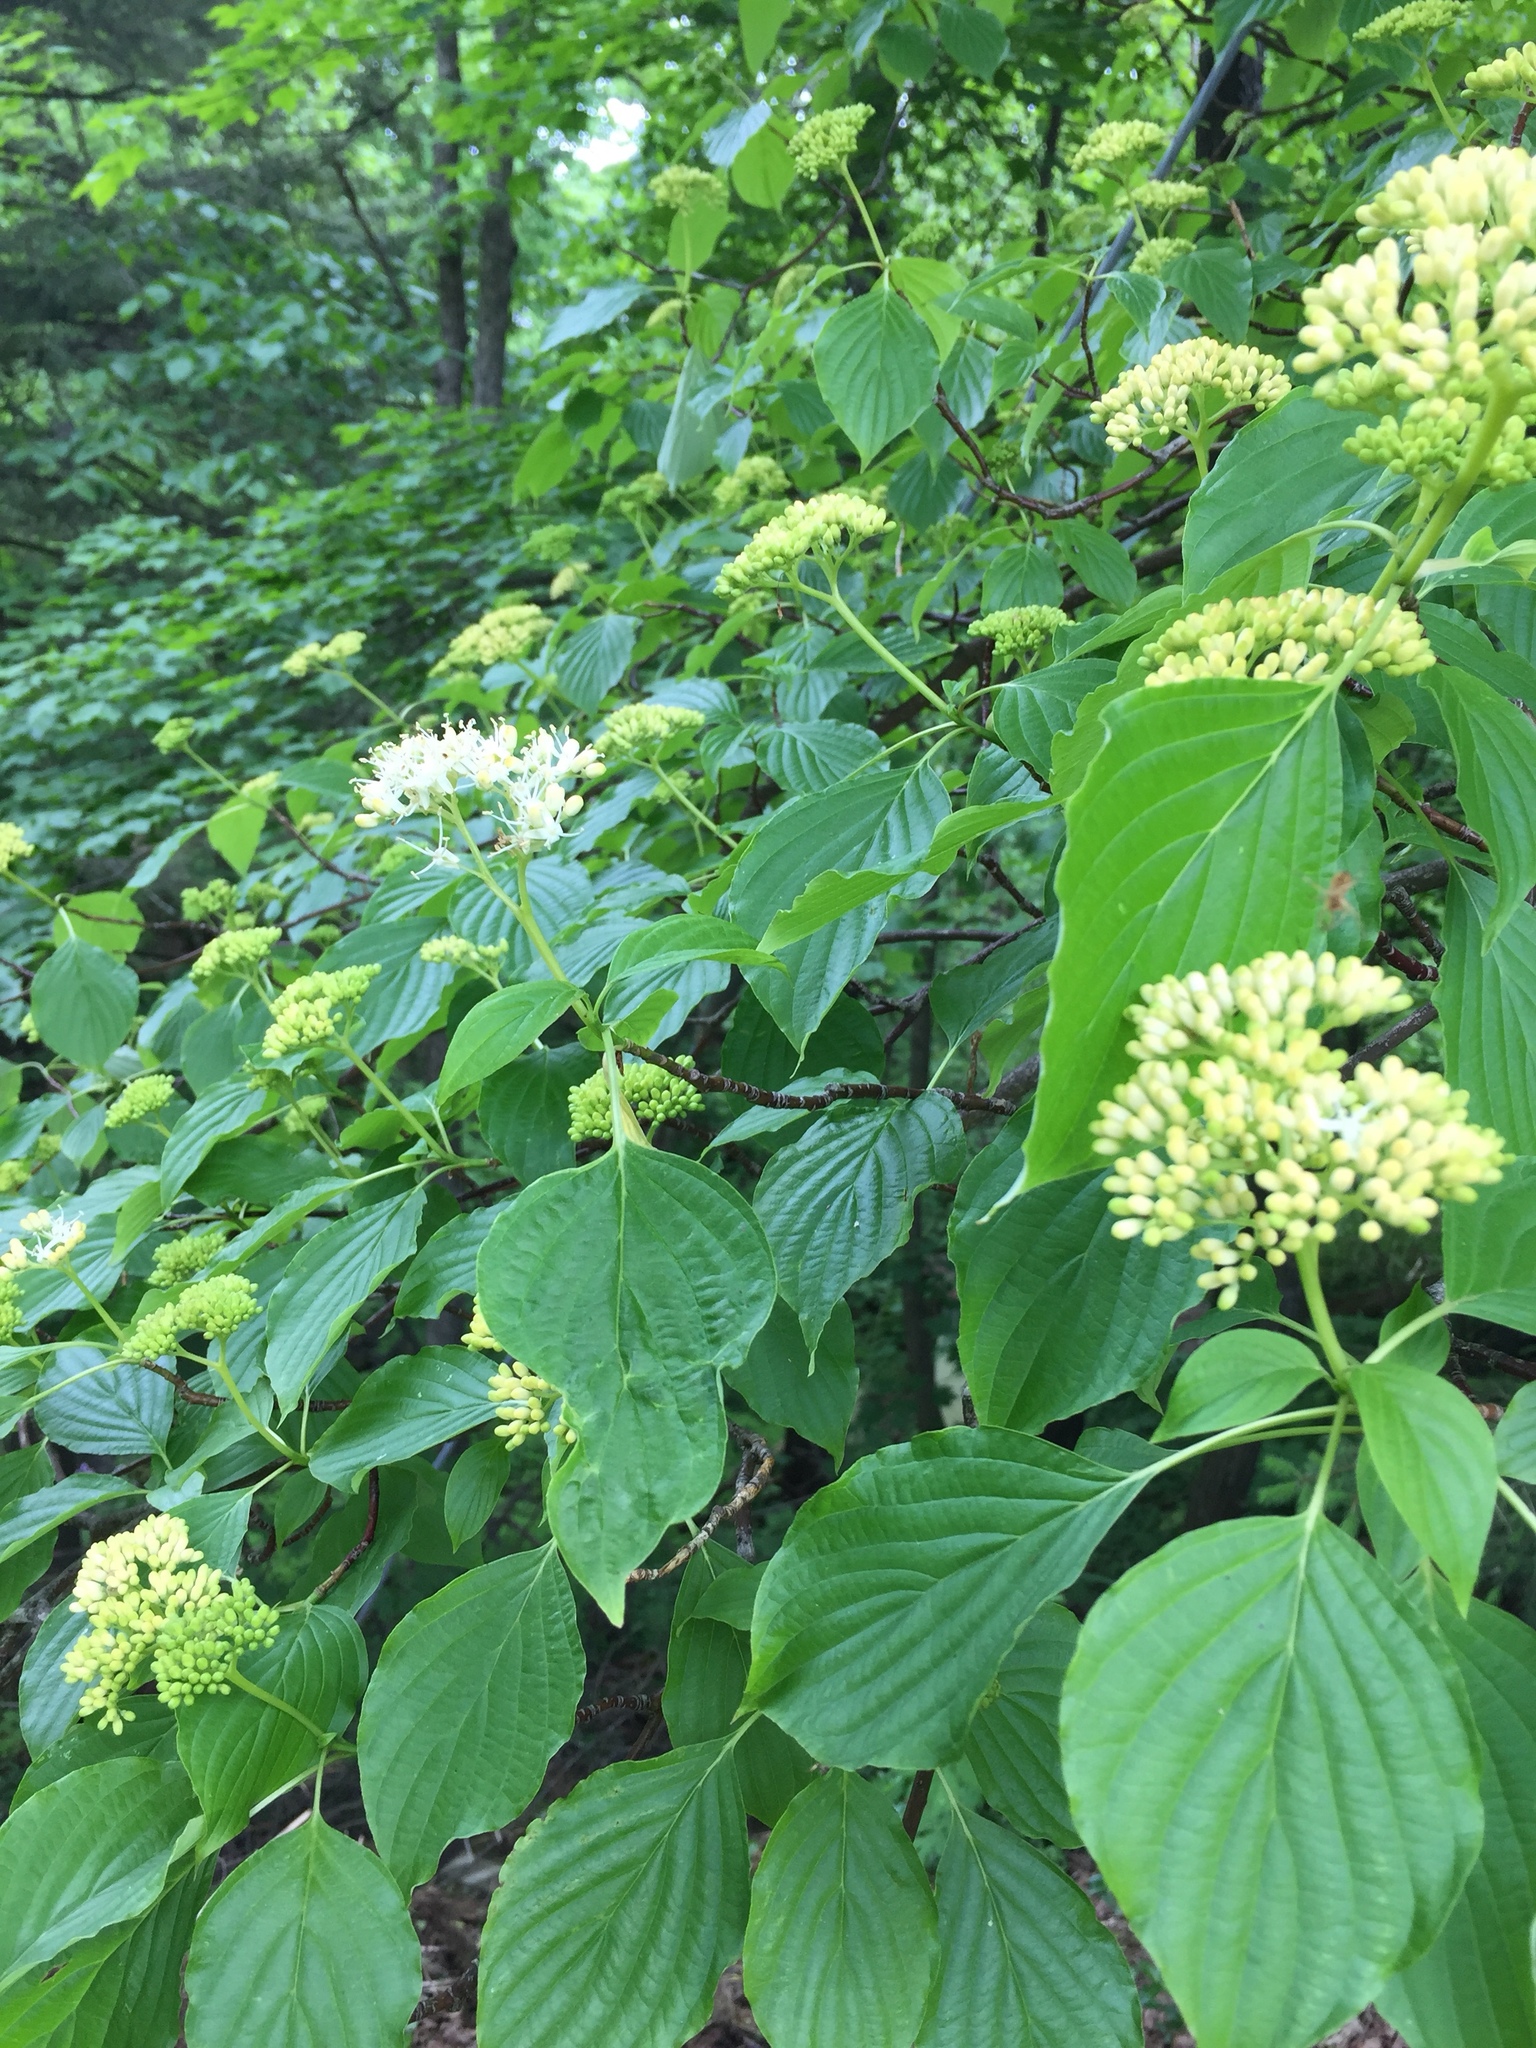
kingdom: Plantae
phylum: Tracheophyta
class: Magnoliopsida
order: Cornales
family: Cornaceae
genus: Cornus
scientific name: Cornus alternifolia
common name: Pagoda dogwood
